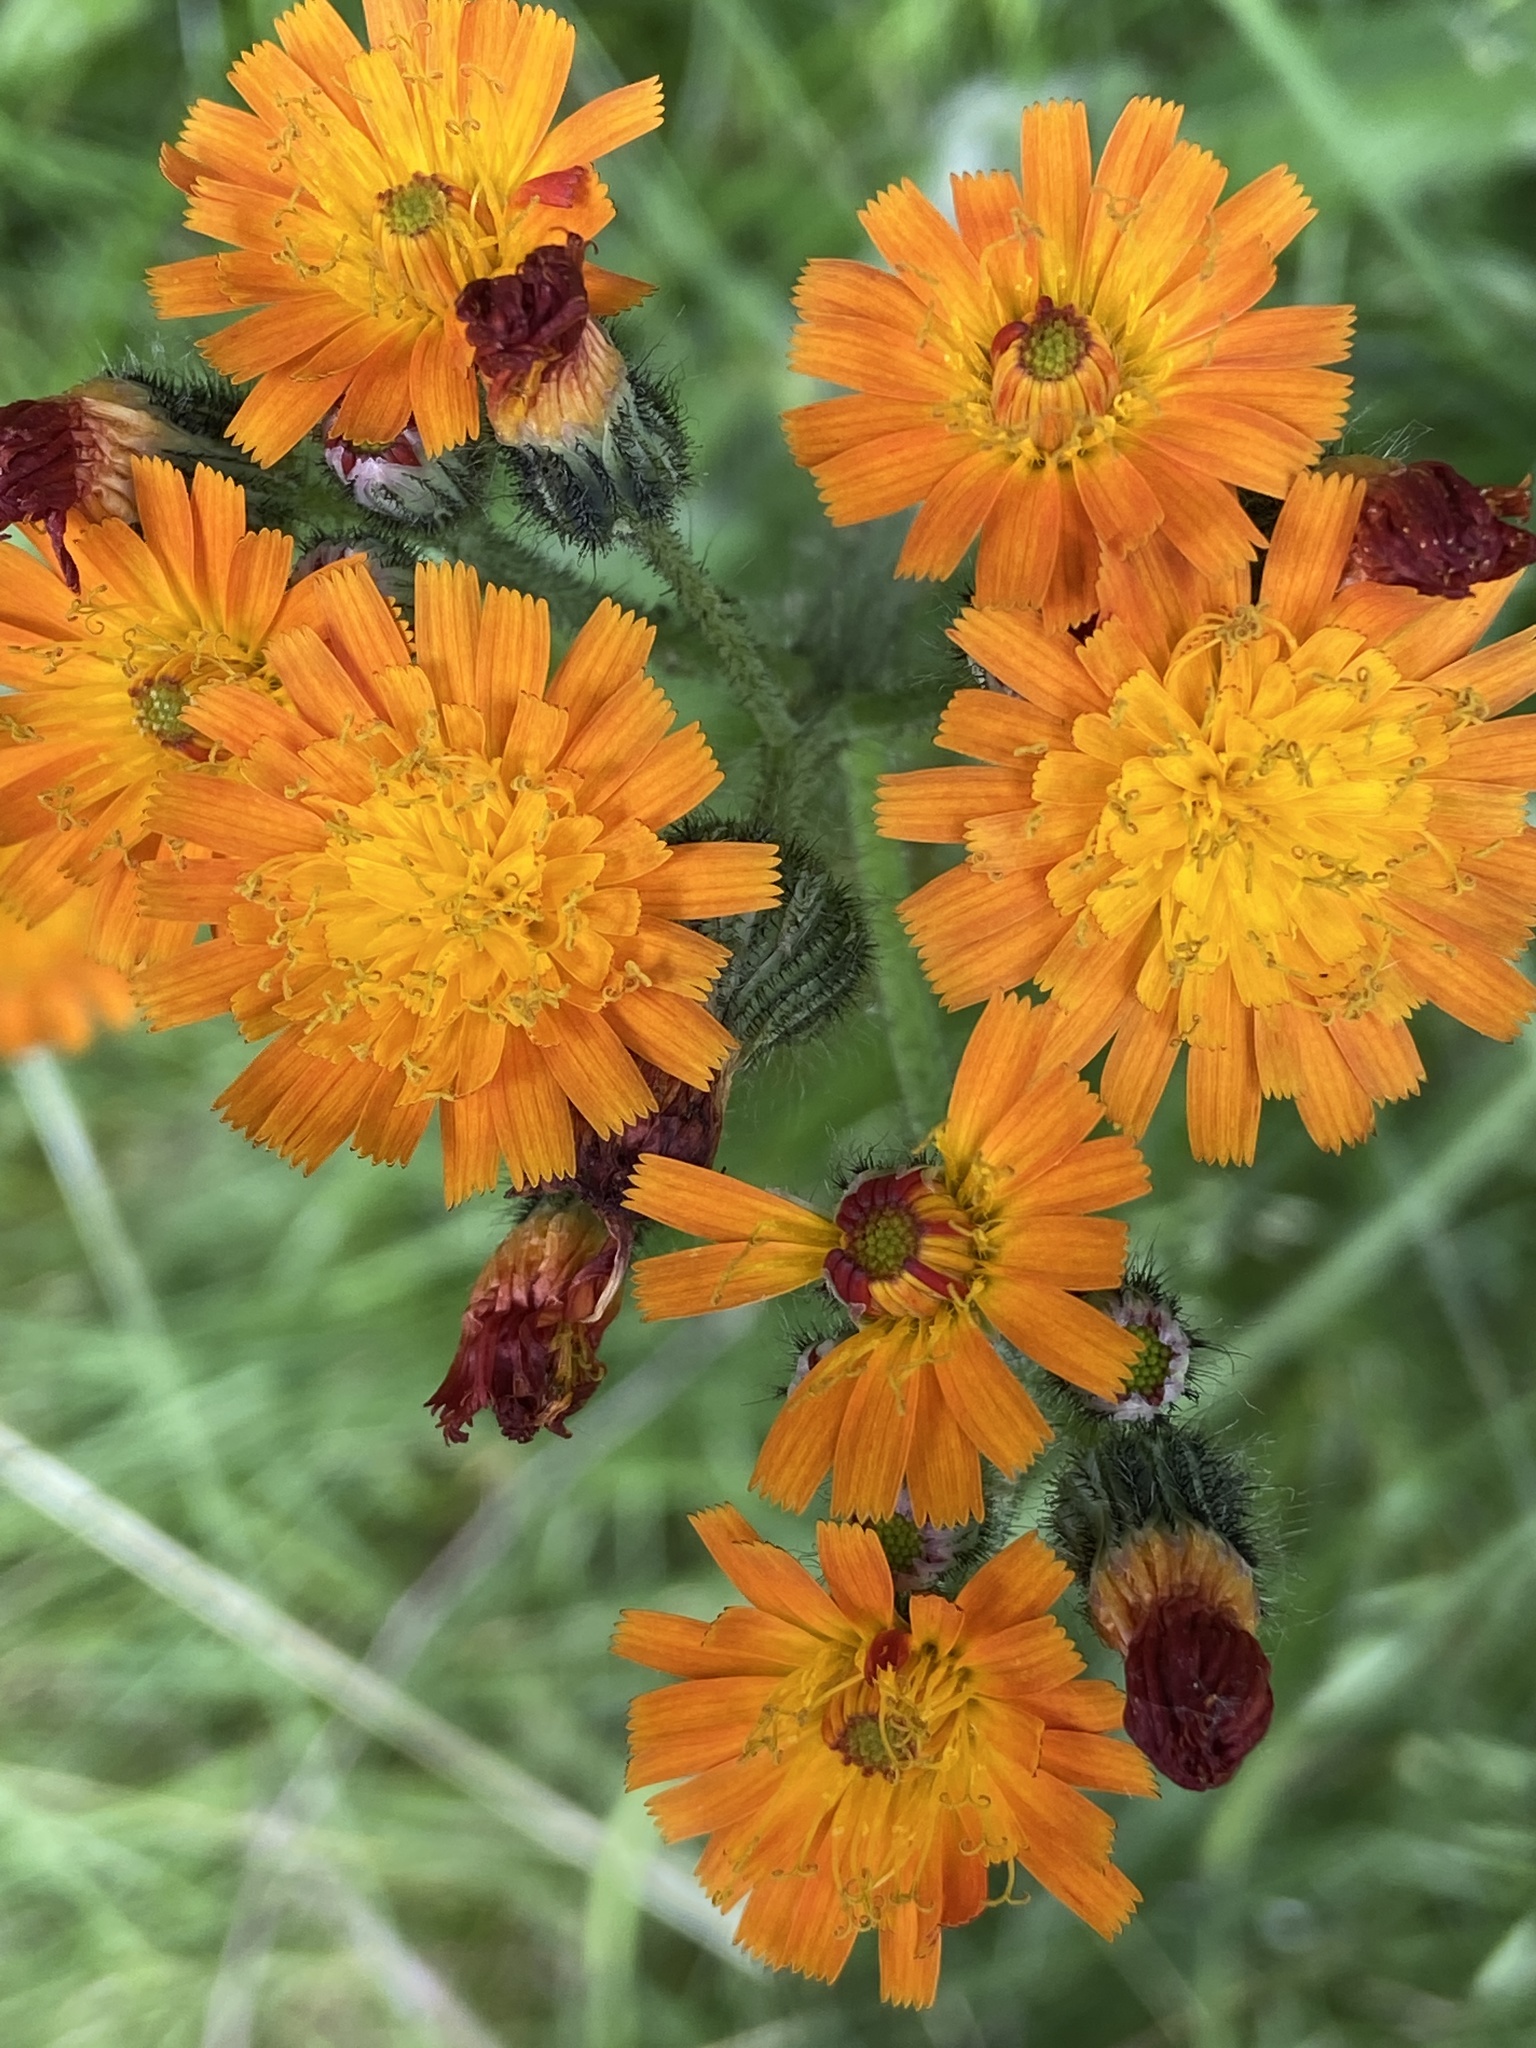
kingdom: Plantae
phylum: Tracheophyta
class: Magnoliopsida
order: Asterales
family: Asteraceae
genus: Pilosella
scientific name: Pilosella aurantiaca
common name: Fox-and-cubs
